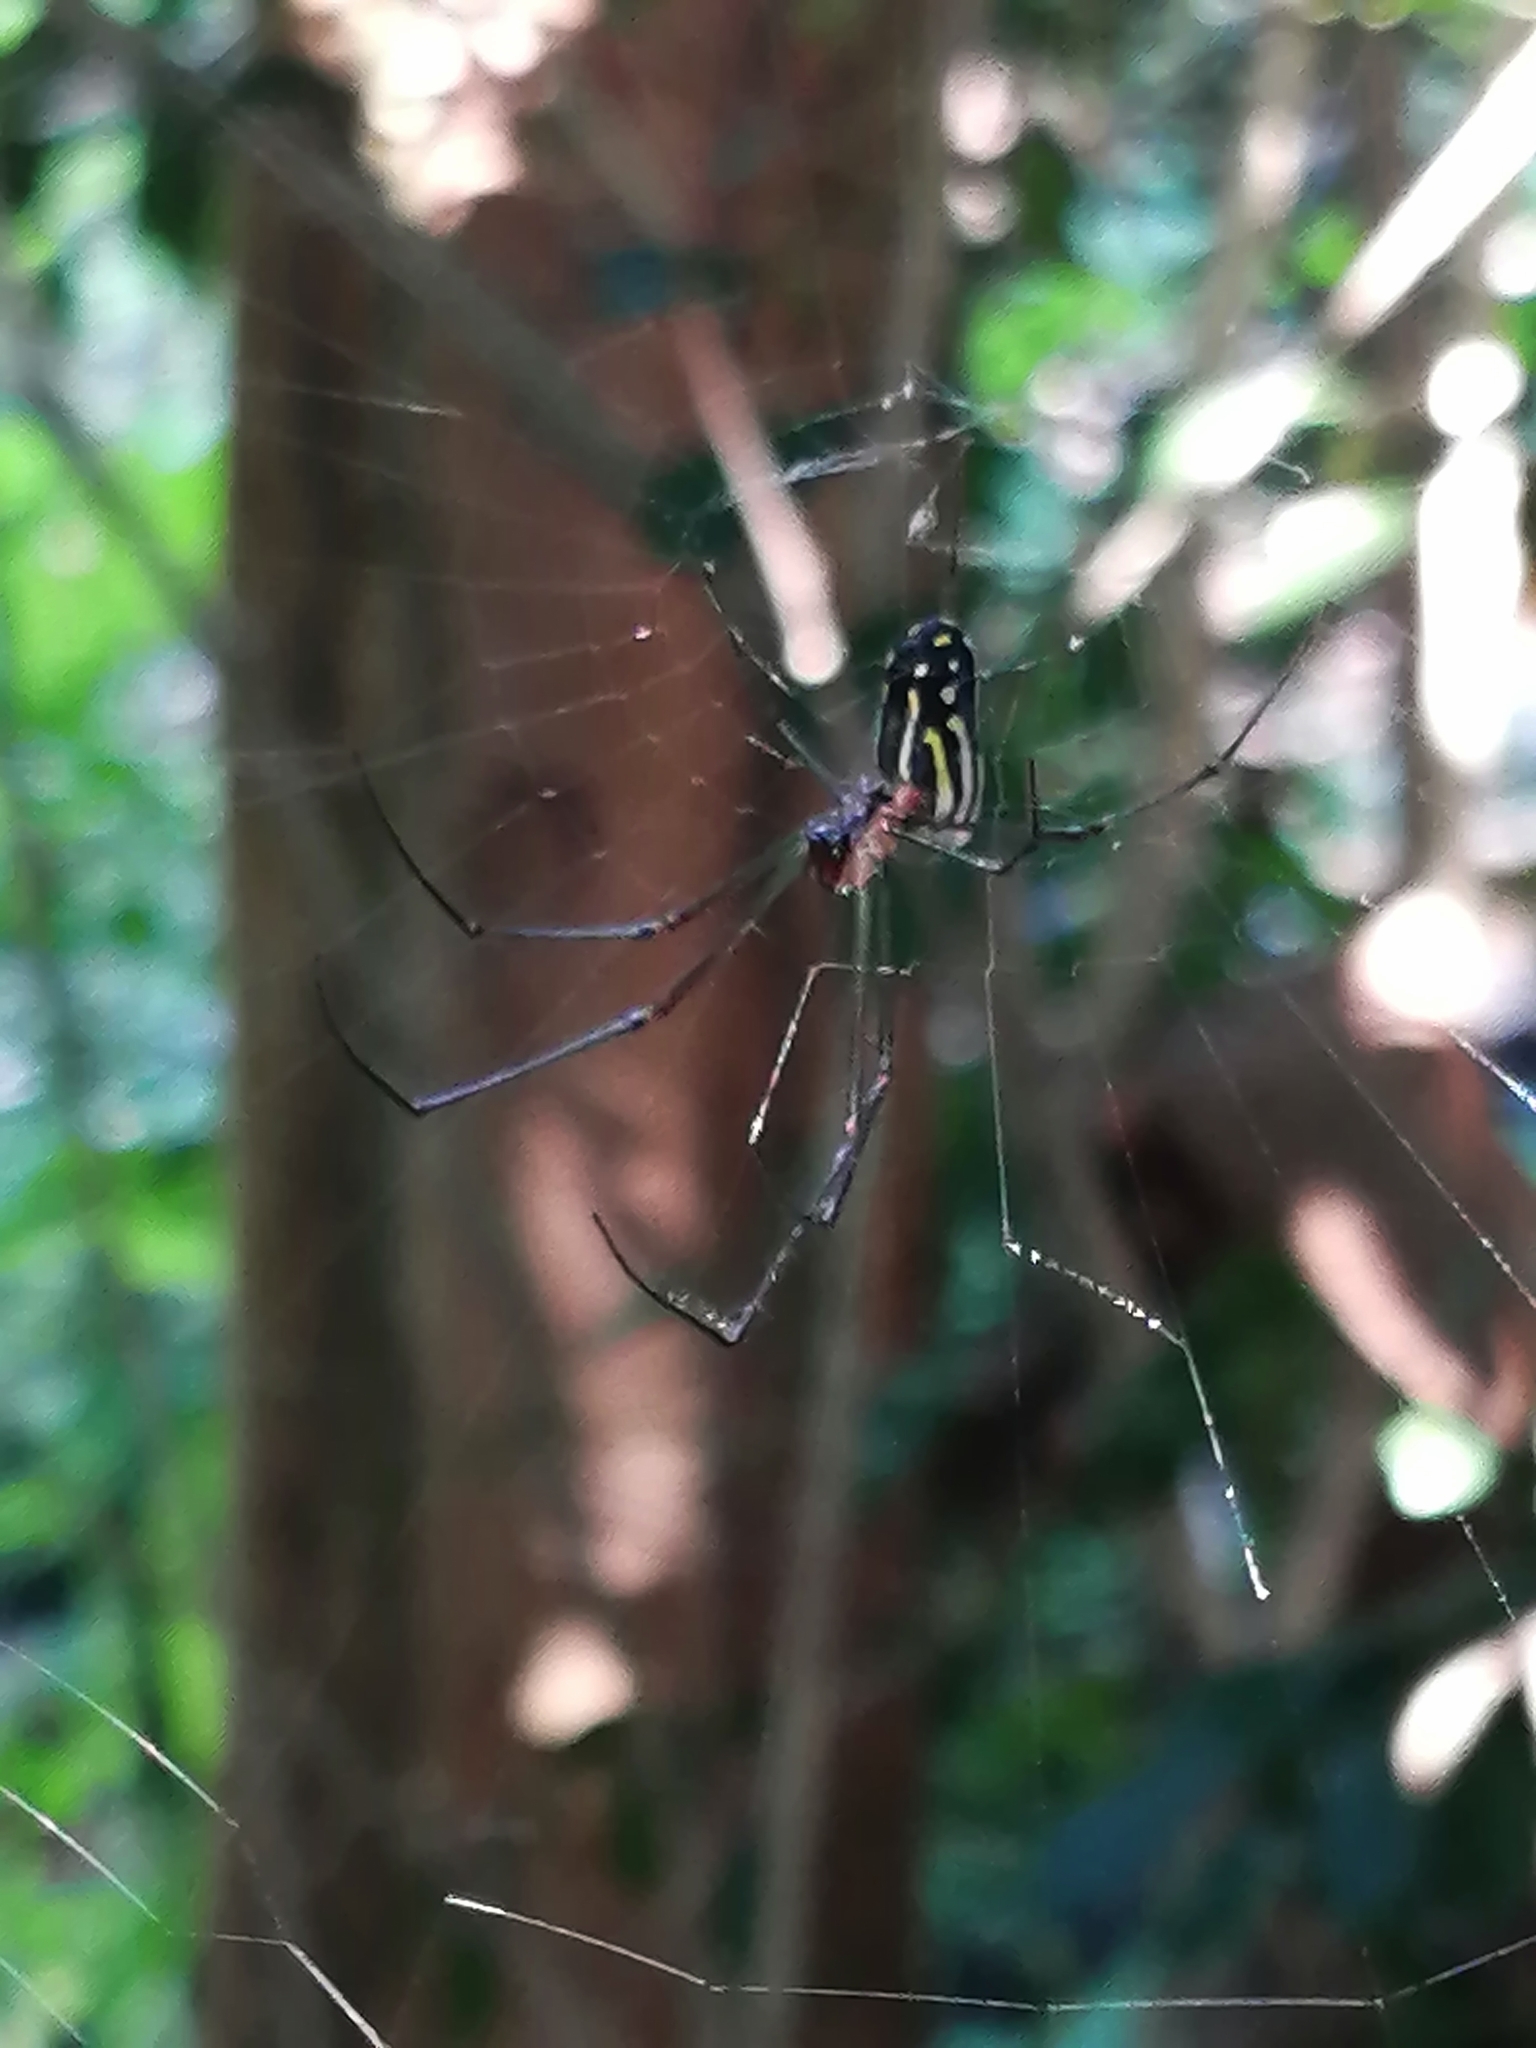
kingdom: Animalia
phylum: Arthropoda
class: Arachnida
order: Araneae
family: Tetragnathidae
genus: Leucauge
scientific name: Leucauge argyra
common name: Longjawed orb weavers
